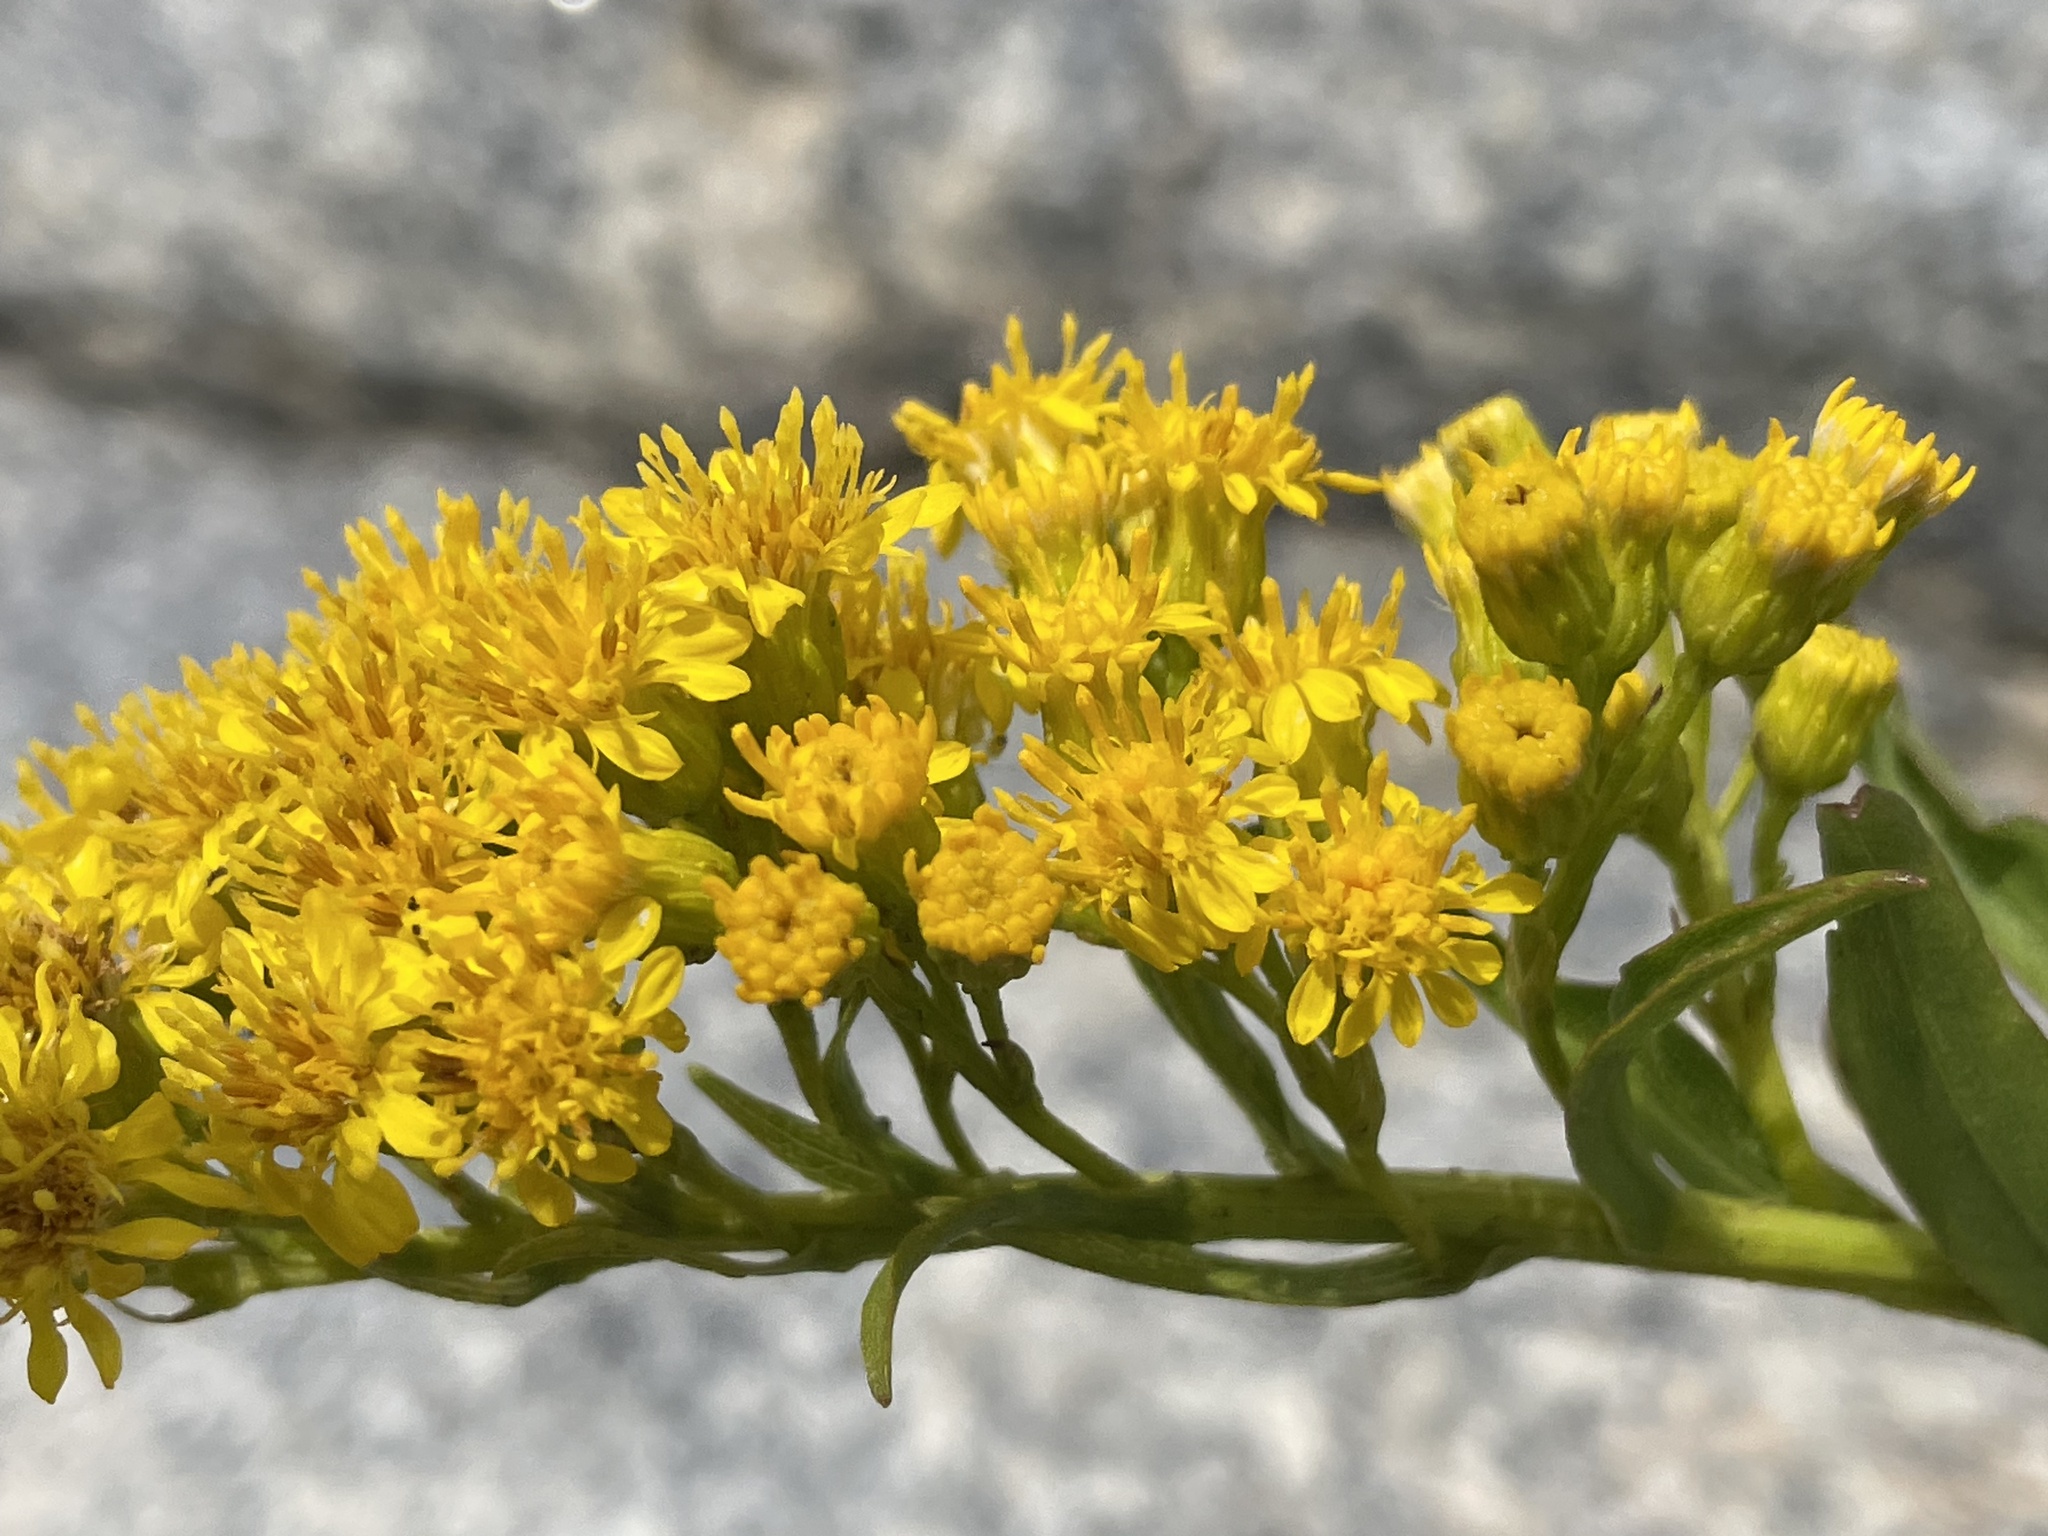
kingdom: Plantae
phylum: Tracheophyta
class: Magnoliopsida
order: Asterales
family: Asteraceae
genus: Solidago
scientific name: Solidago sempervirens
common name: Salt-marsh goldenrod
